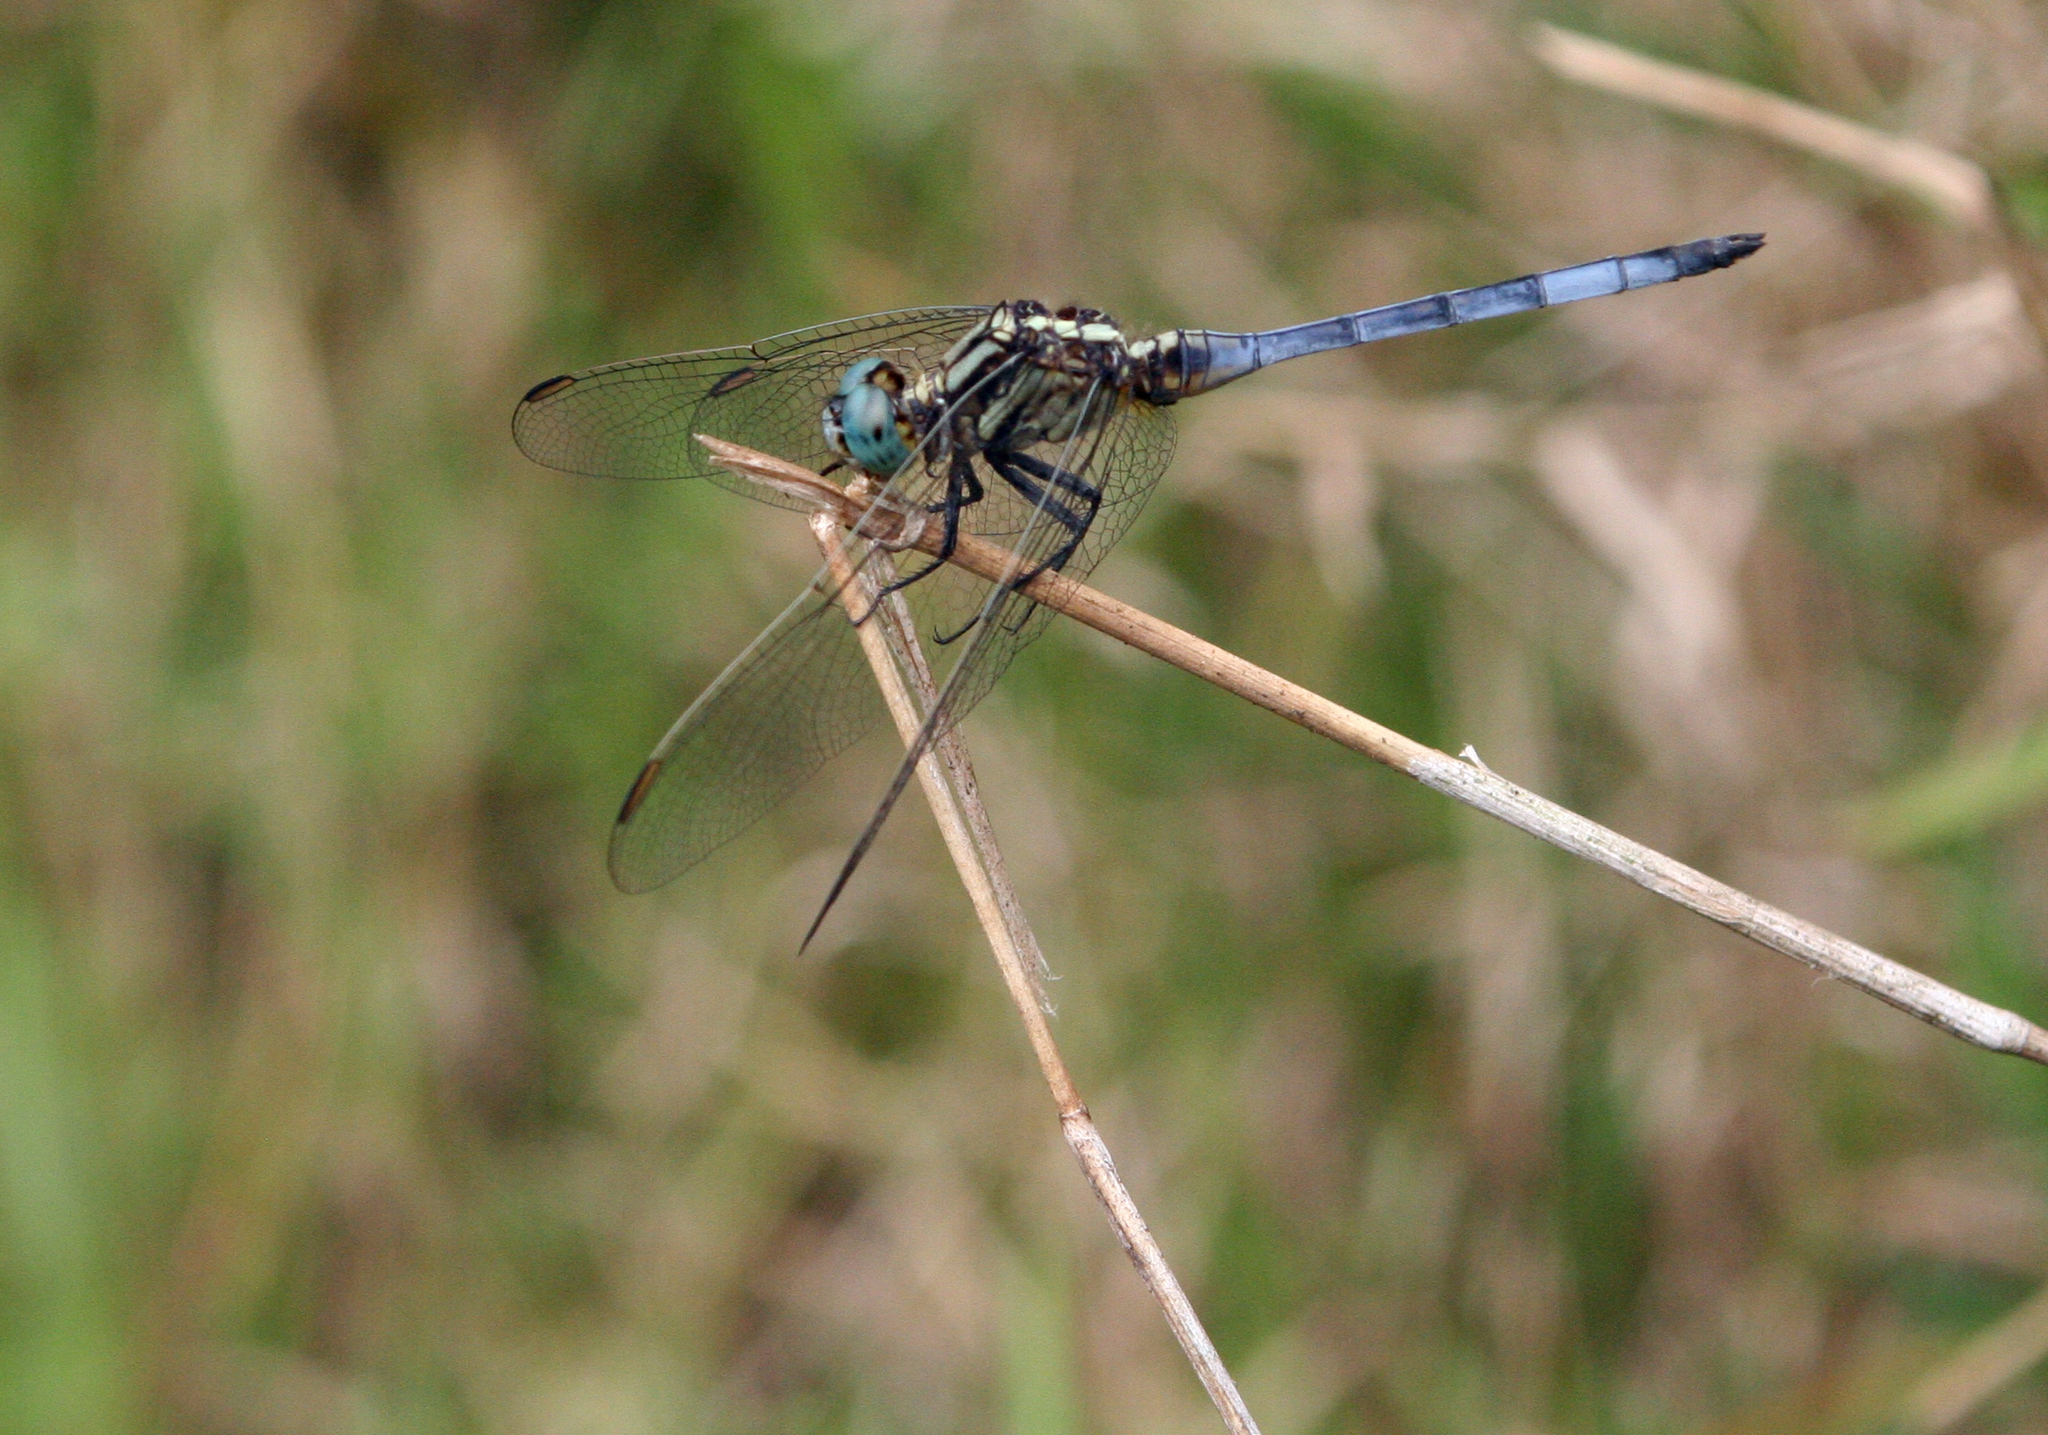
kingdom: Animalia
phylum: Arthropoda
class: Insecta
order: Odonata
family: Libellulidae
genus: Orthetrum
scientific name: Orthetrum luzonicum
